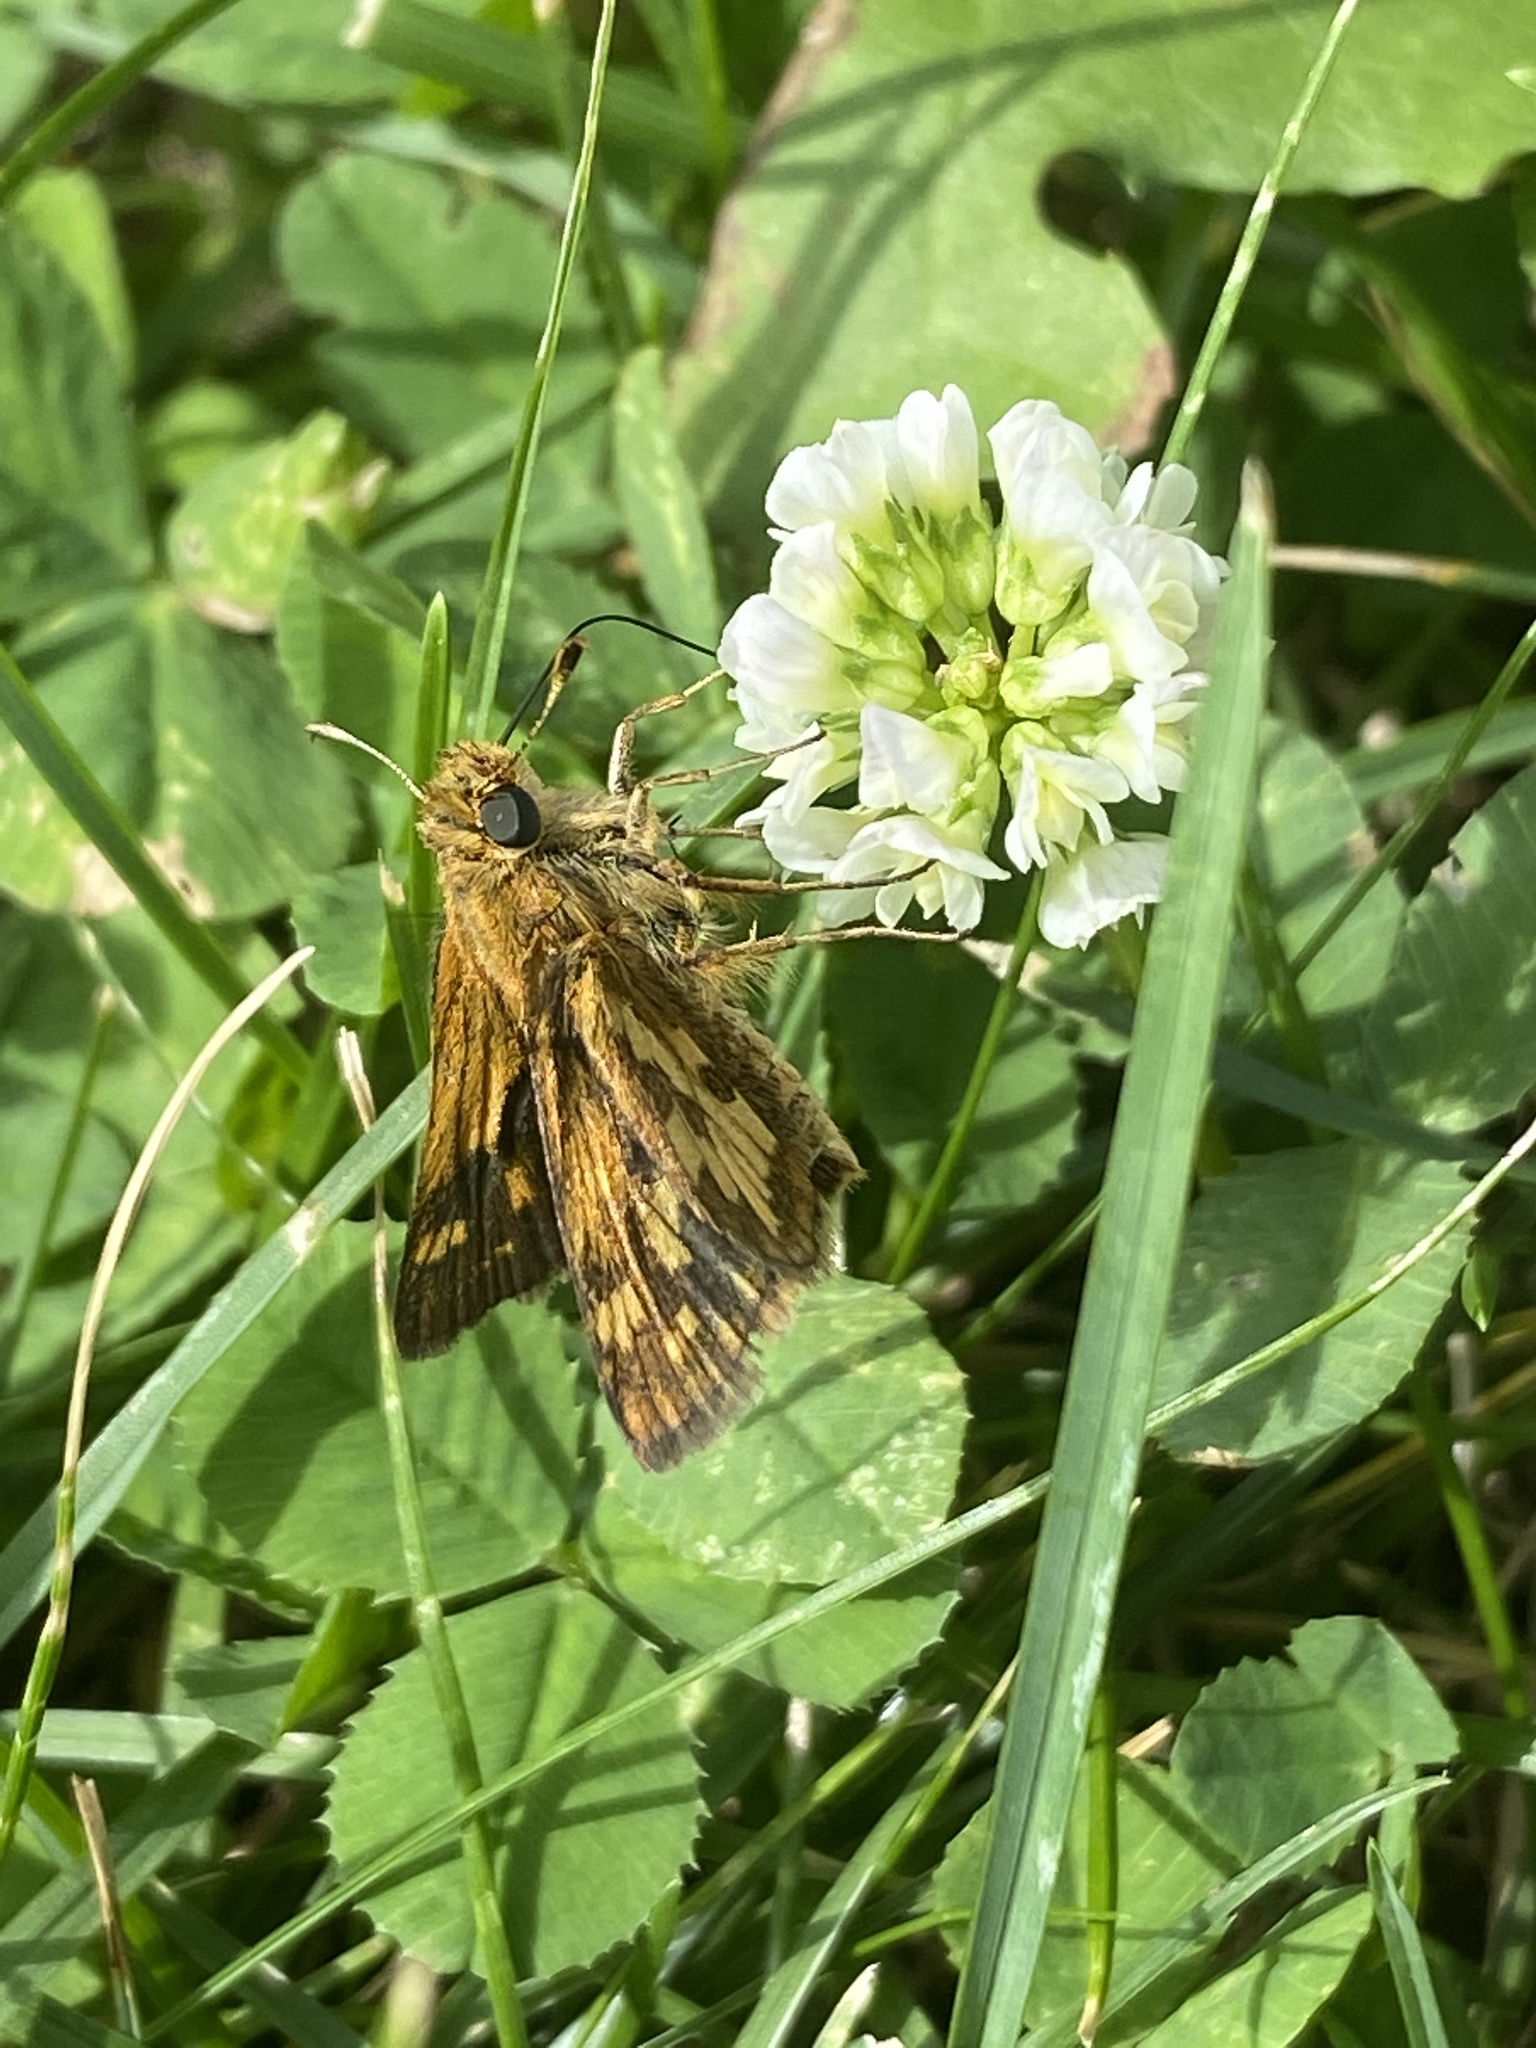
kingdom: Animalia
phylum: Arthropoda
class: Insecta
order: Lepidoptera
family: Hesperiidae
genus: Polites
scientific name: Polites coras
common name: Peck's skipper
